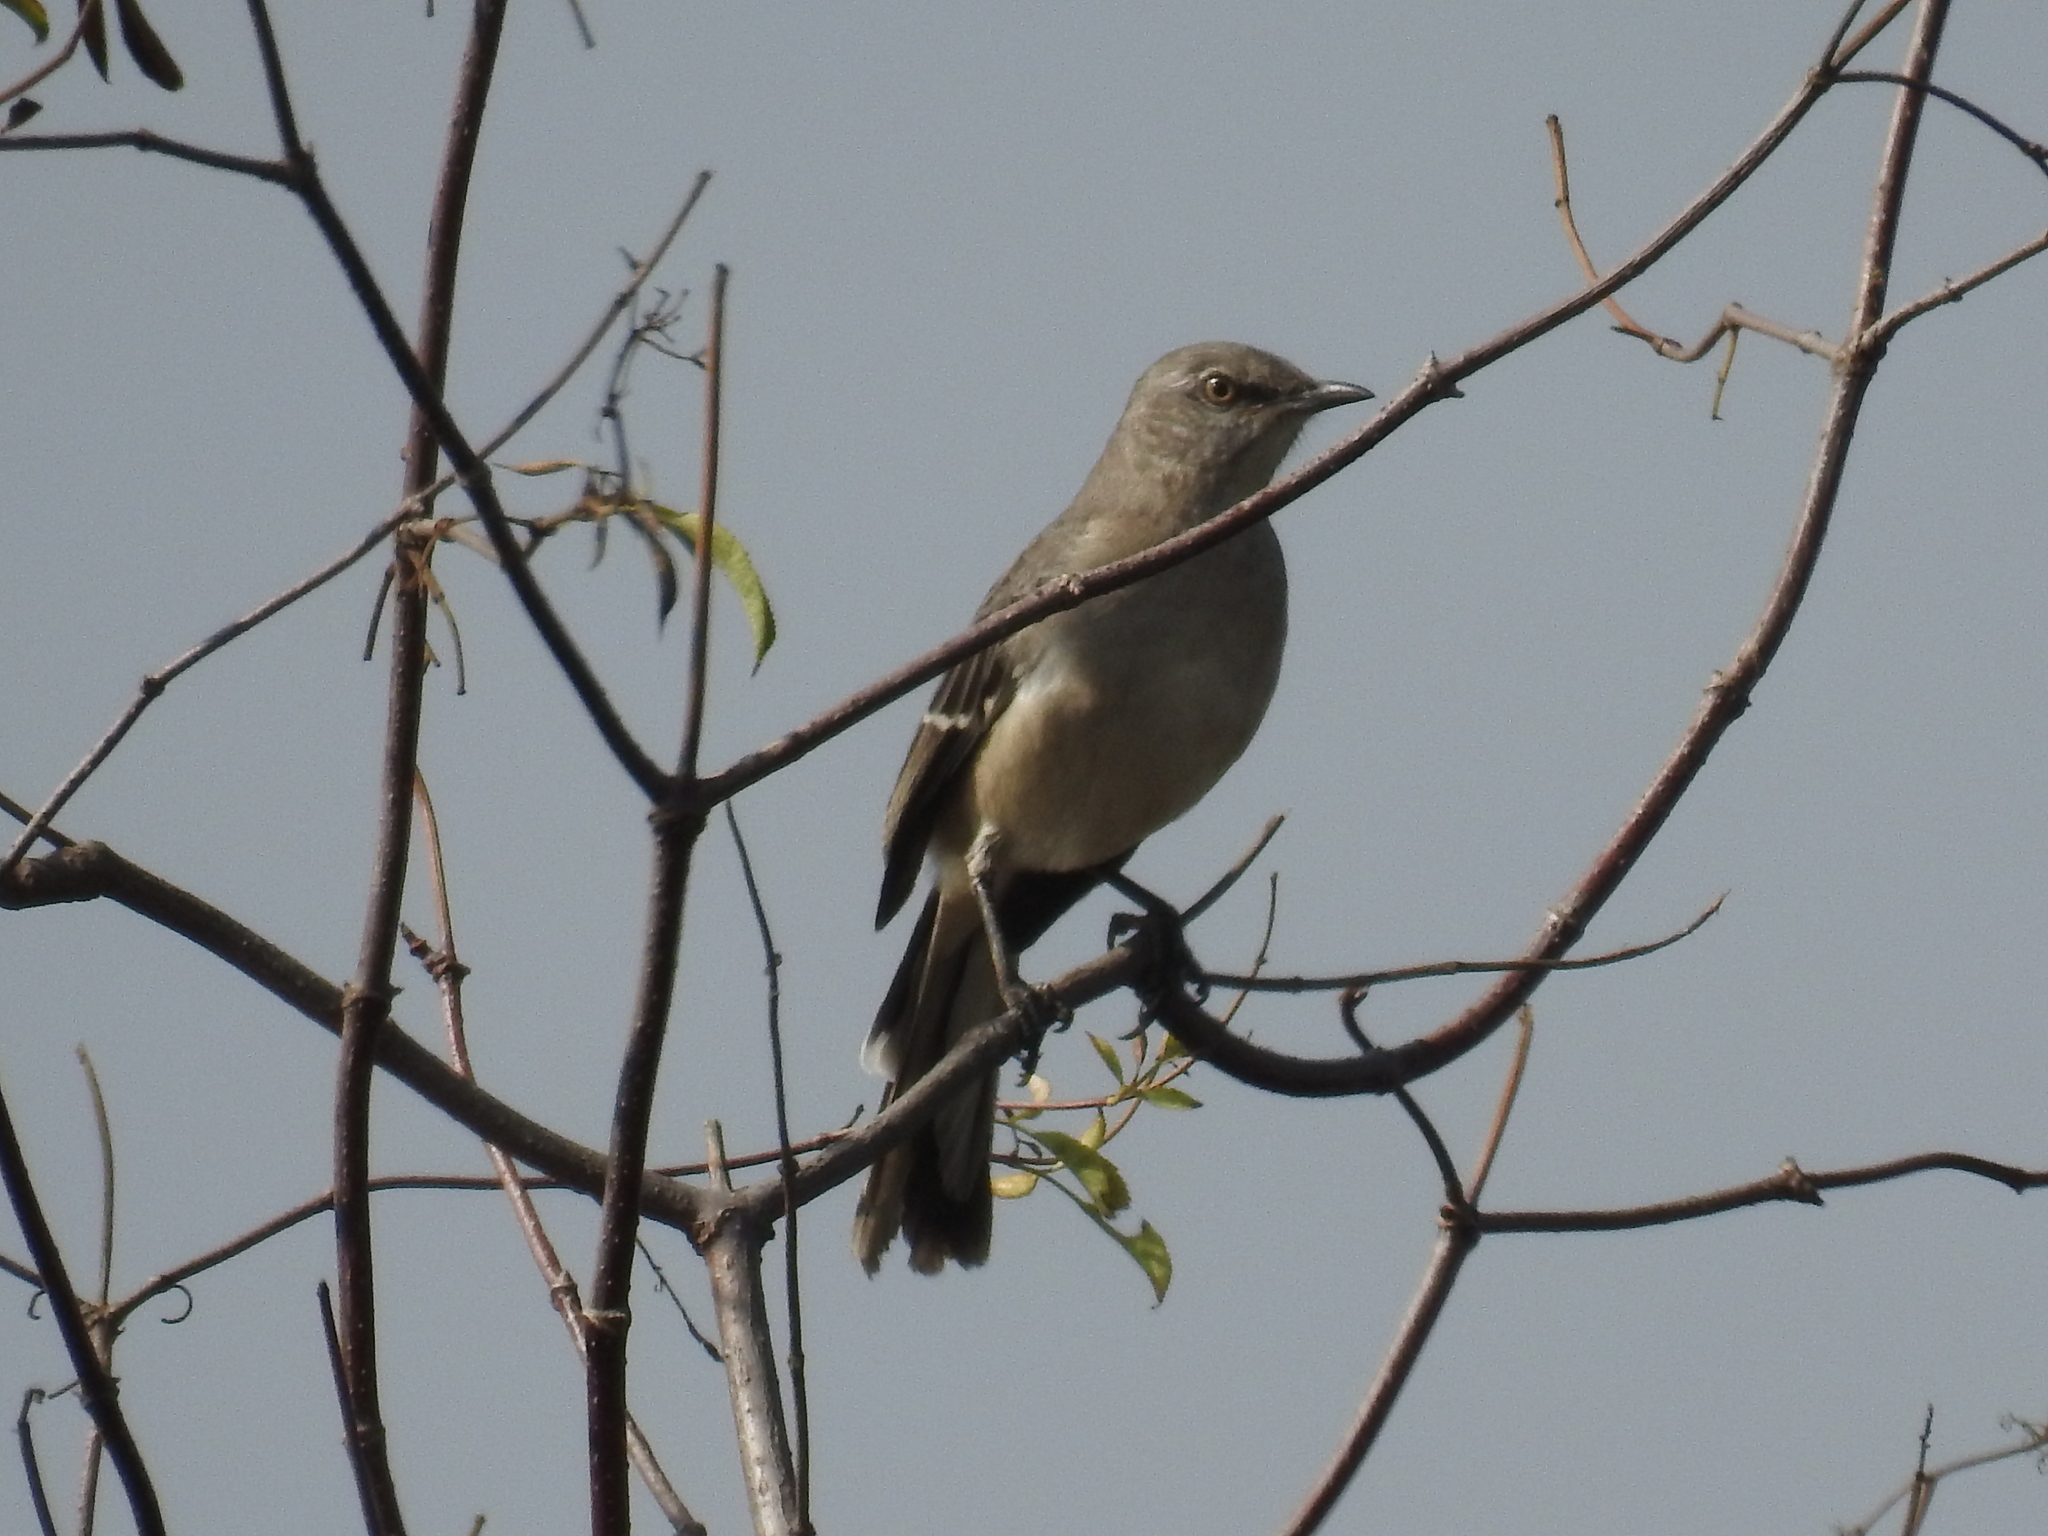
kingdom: Animalia
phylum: Chordata
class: Aves
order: Passeriformes
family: Mimidae
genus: Mimus
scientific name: Mimus polyglottos
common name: Northern mockingbird
